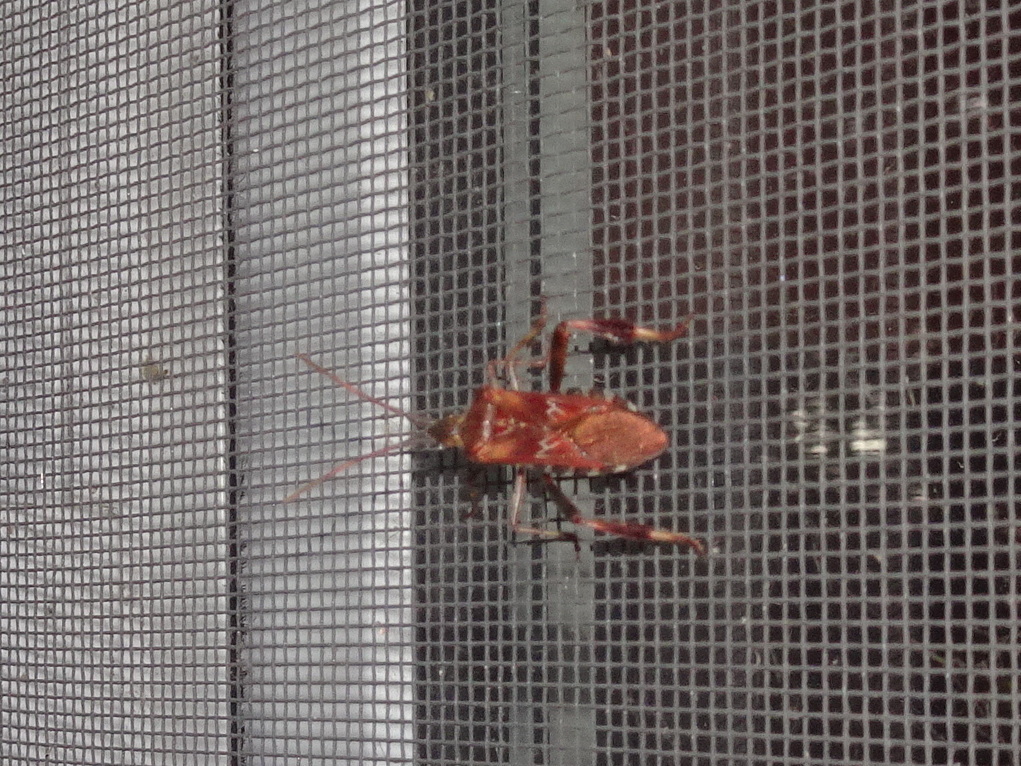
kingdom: Animalia
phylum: Arthropoda
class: Insecta
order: Hemiptera
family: Coreidae
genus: Leptoglossus
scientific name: Leptoglossus occidentalis
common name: Western conifer-seed bug
